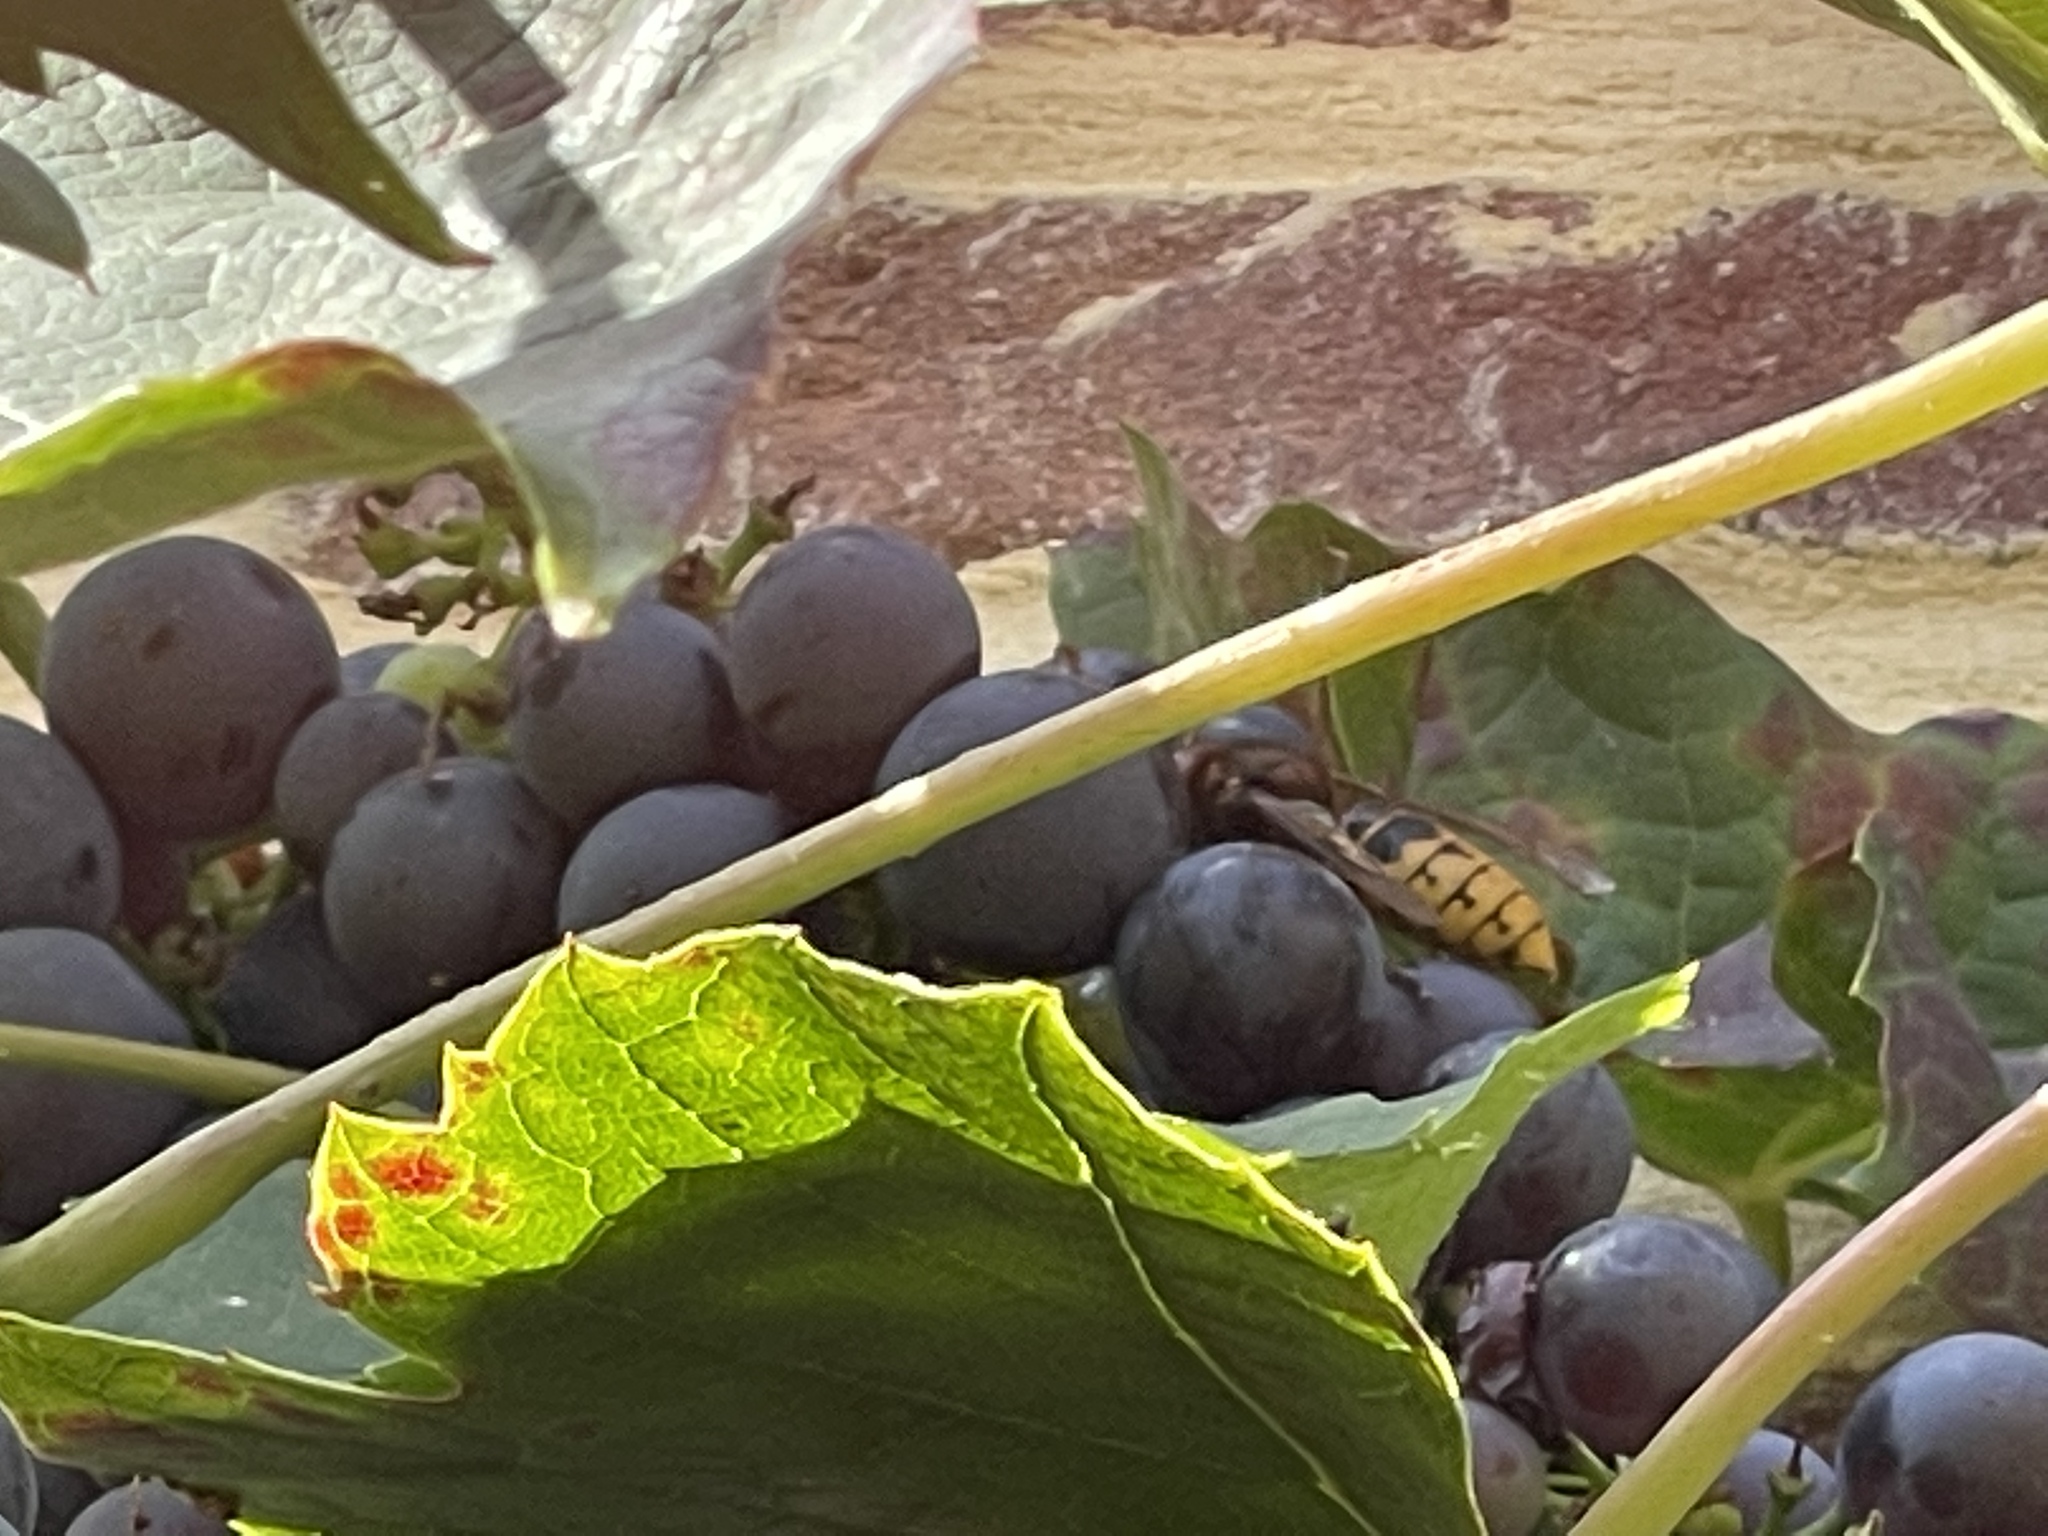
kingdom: Animalia
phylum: Arthropoda
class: Insecta
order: Hymenoptera
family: Vespidae
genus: Vespa
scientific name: Vespa crabro
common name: Hornet
